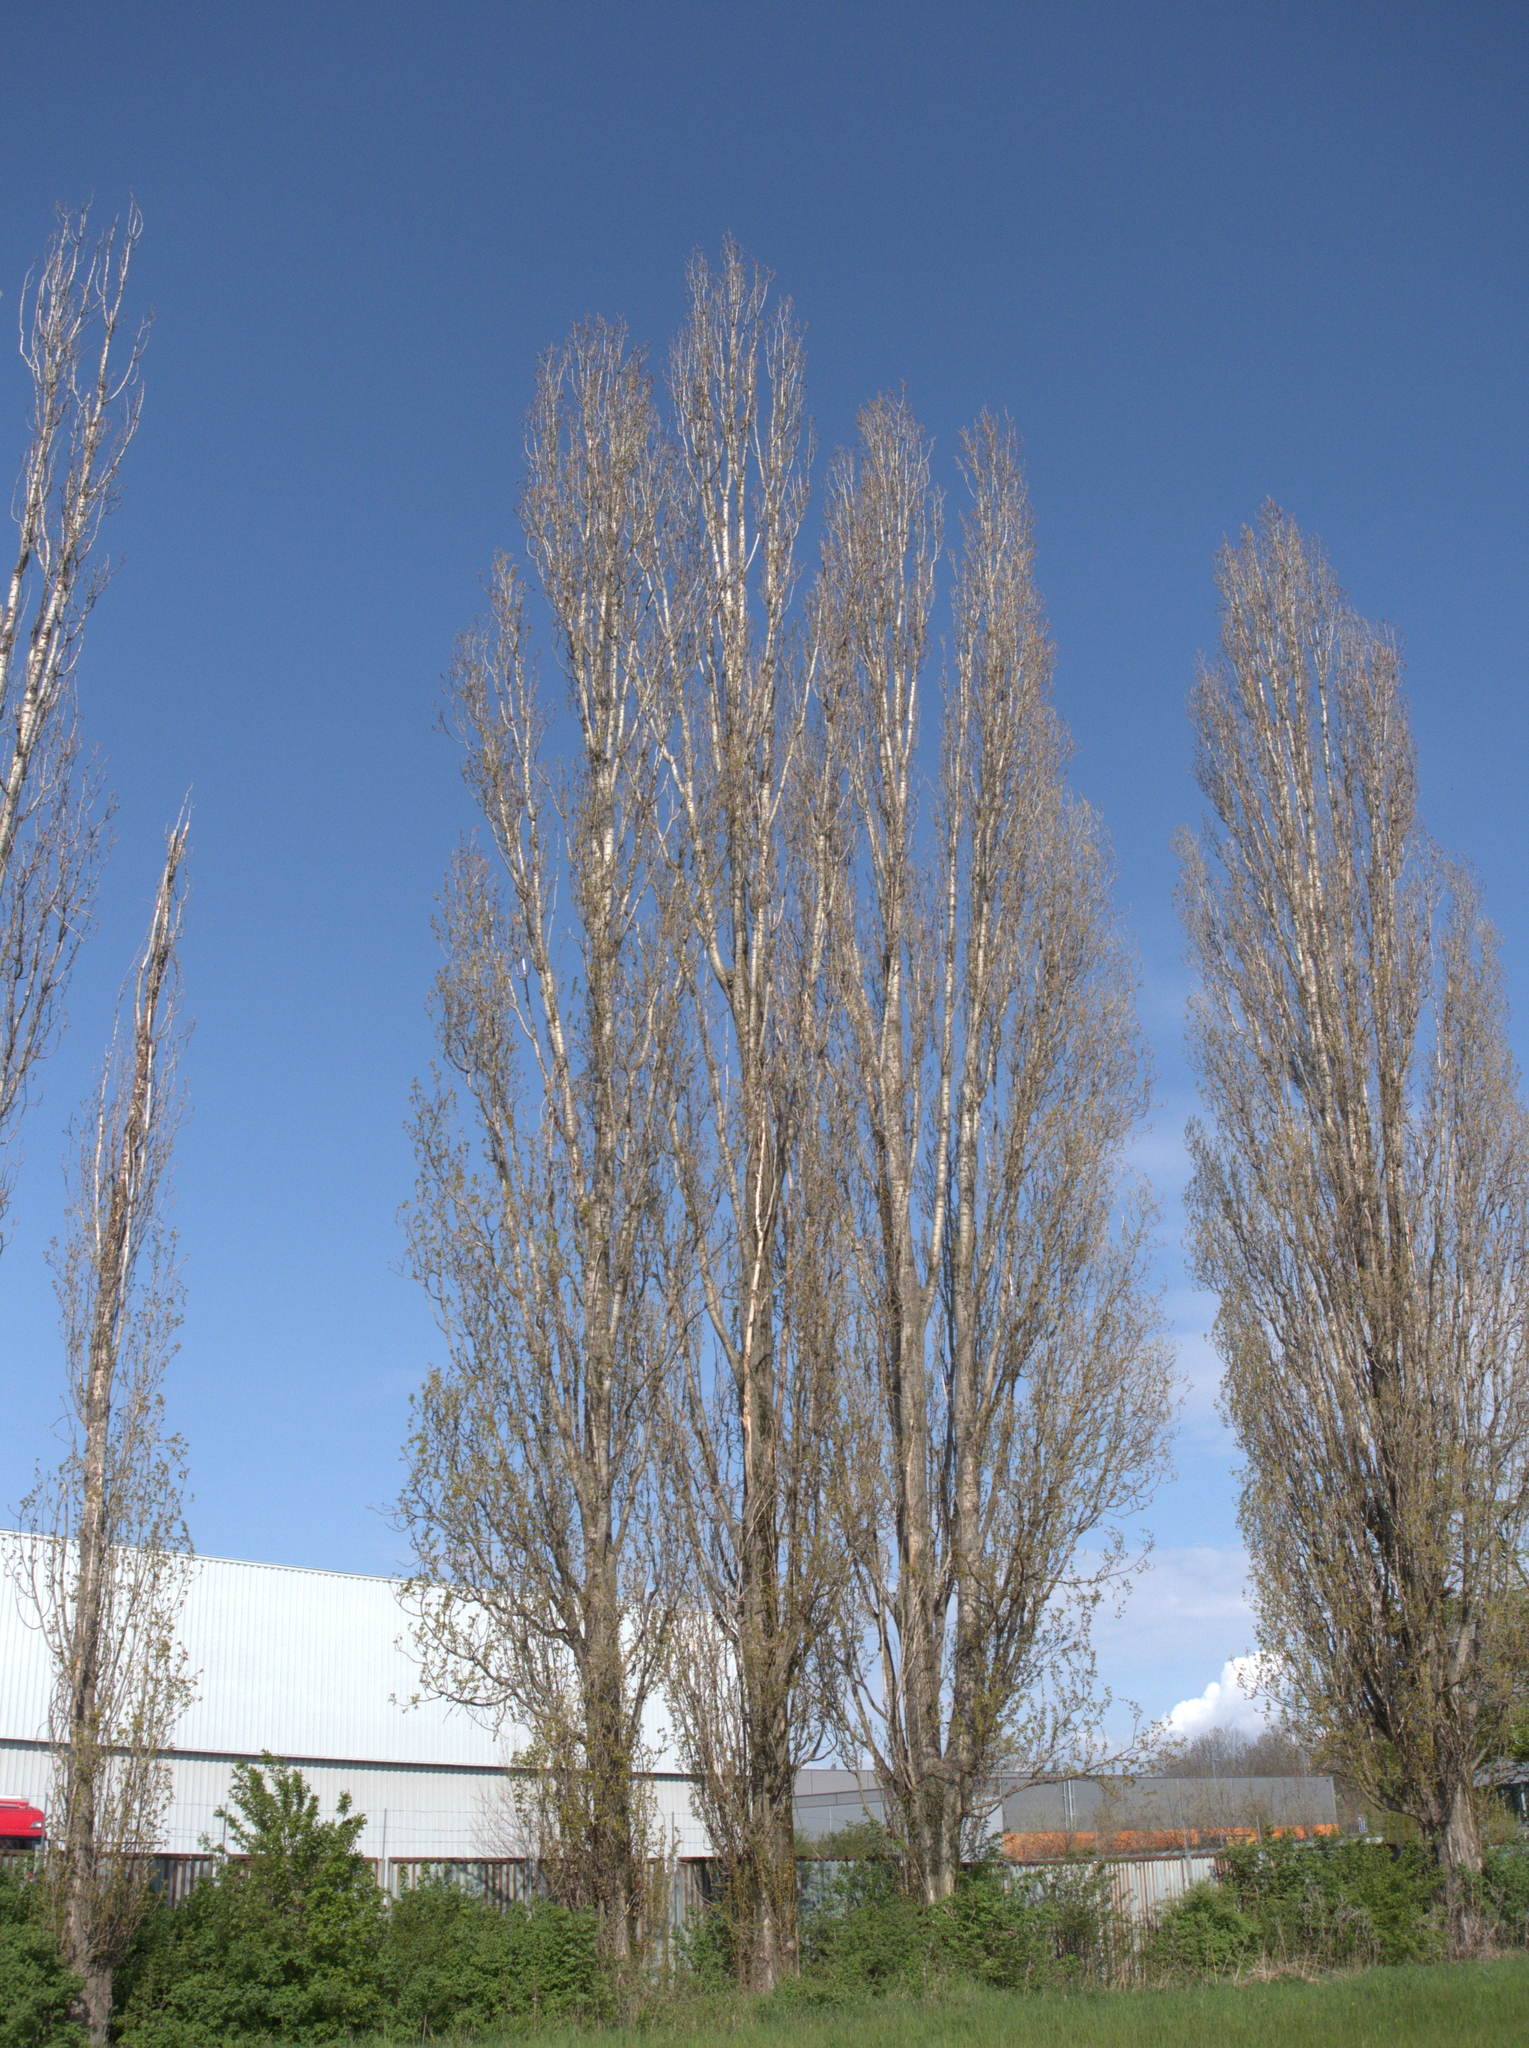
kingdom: Plantae
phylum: Tracheophyta
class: Magnoliopsida
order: Malpighiales
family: Salicaceae
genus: Populus
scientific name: Populus nigra
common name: Black poplar
